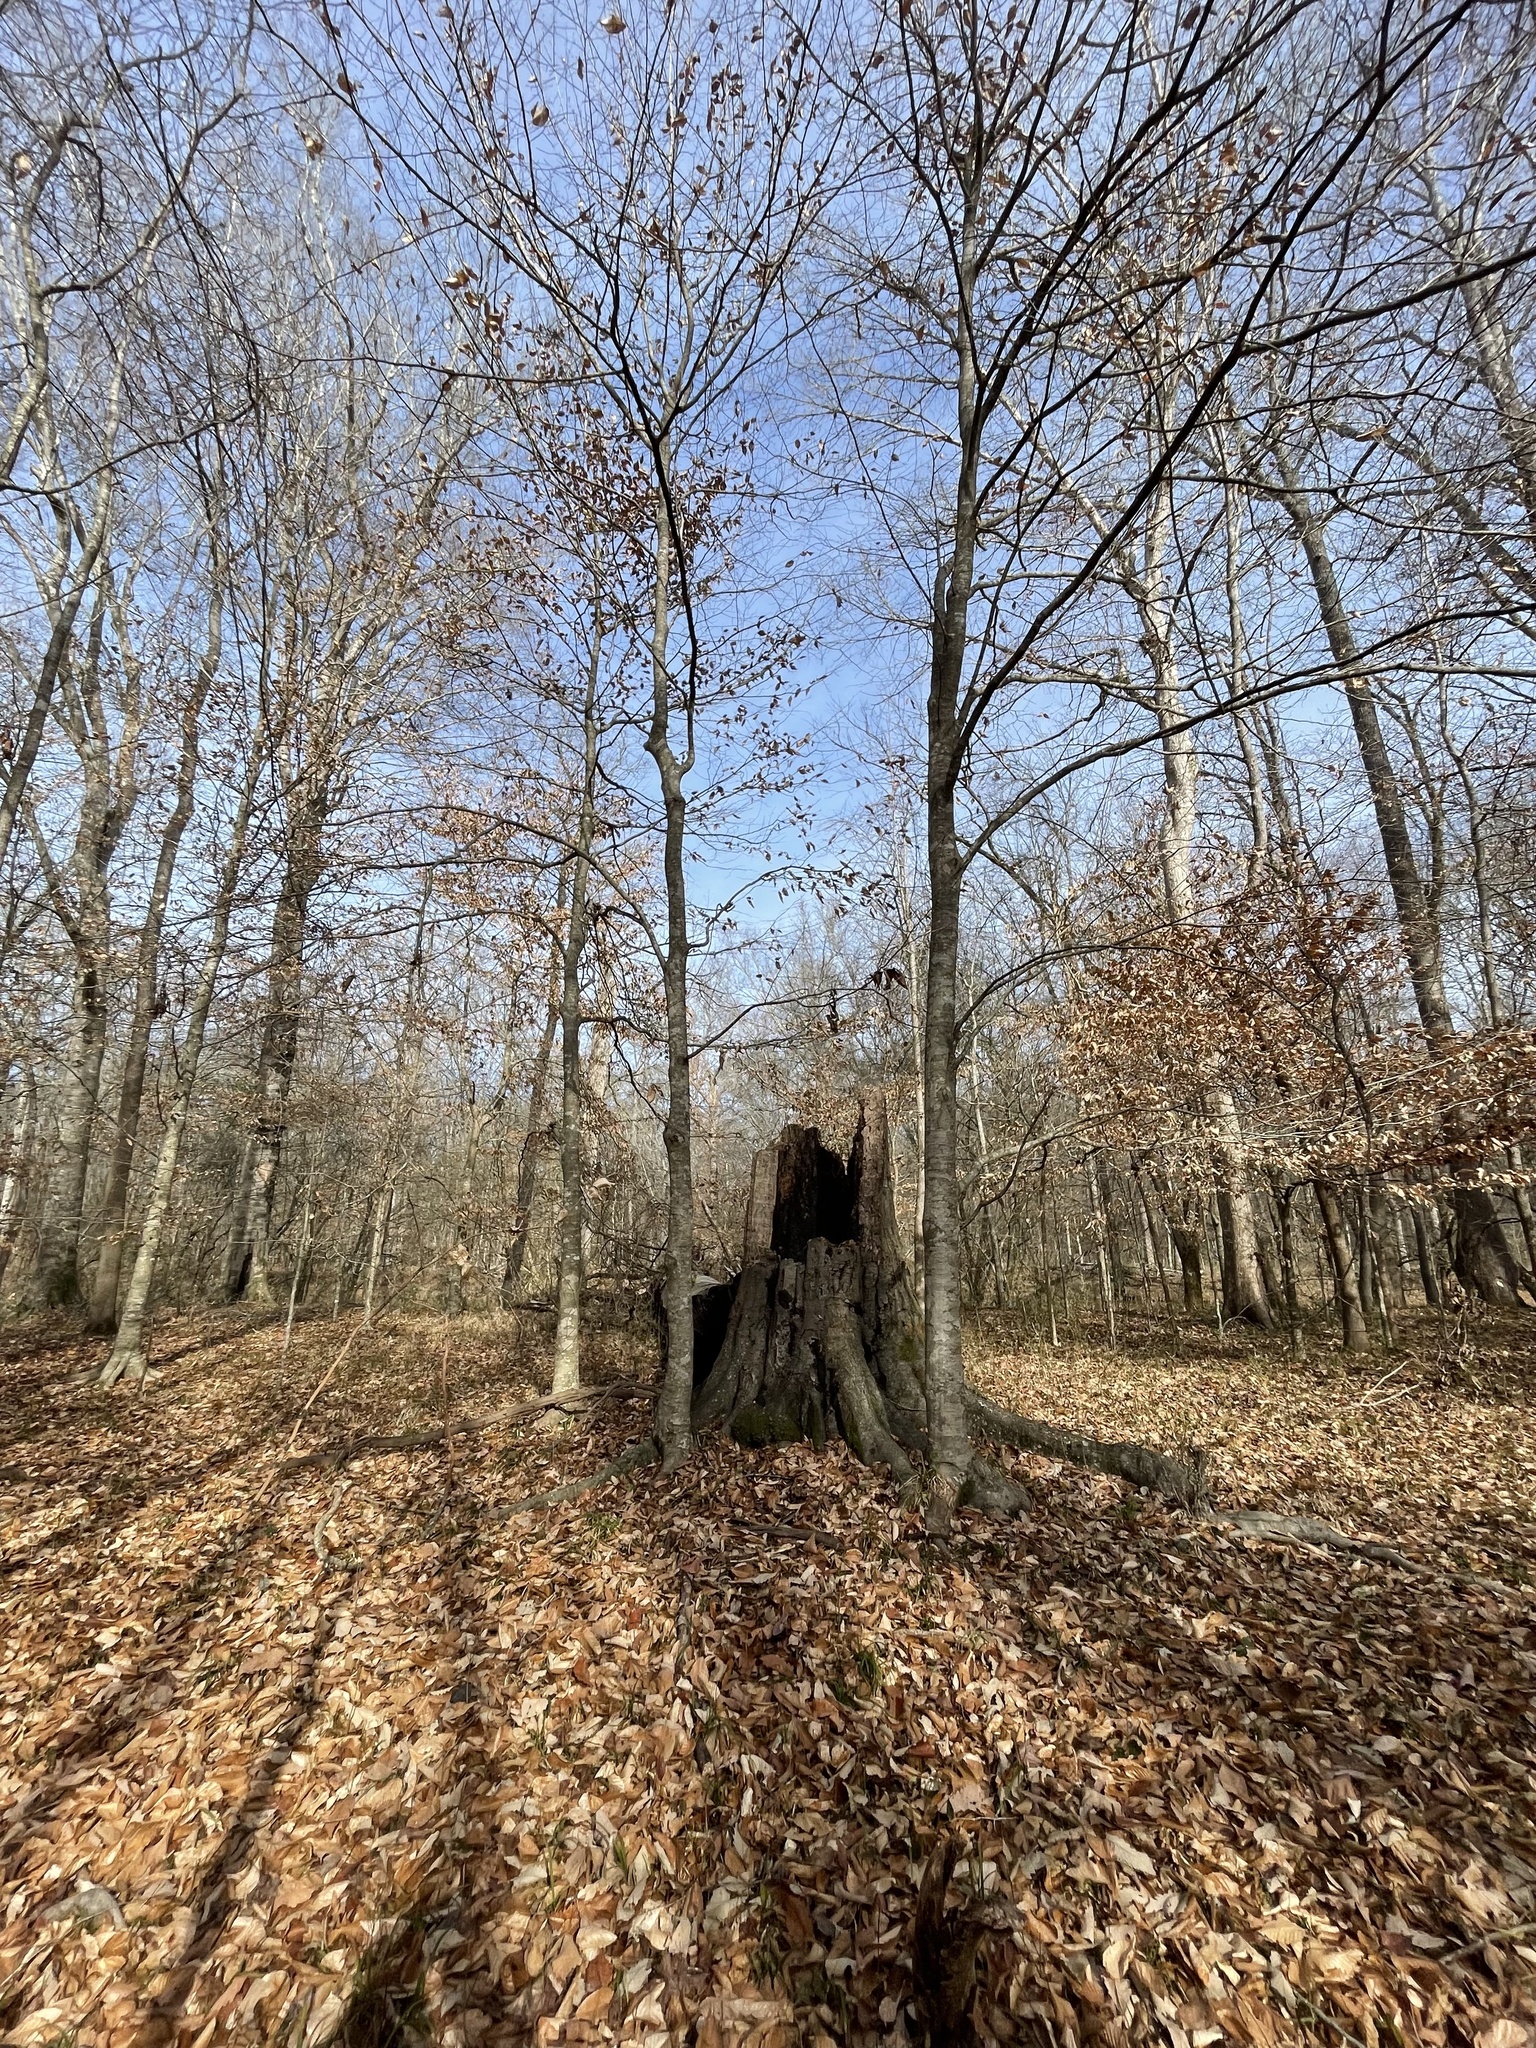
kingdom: Plantae
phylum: Tracheophyta
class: Magnoliopsida
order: Fagales
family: Fagaceae
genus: Fagus
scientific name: Fagus grandifolia
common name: American beech
